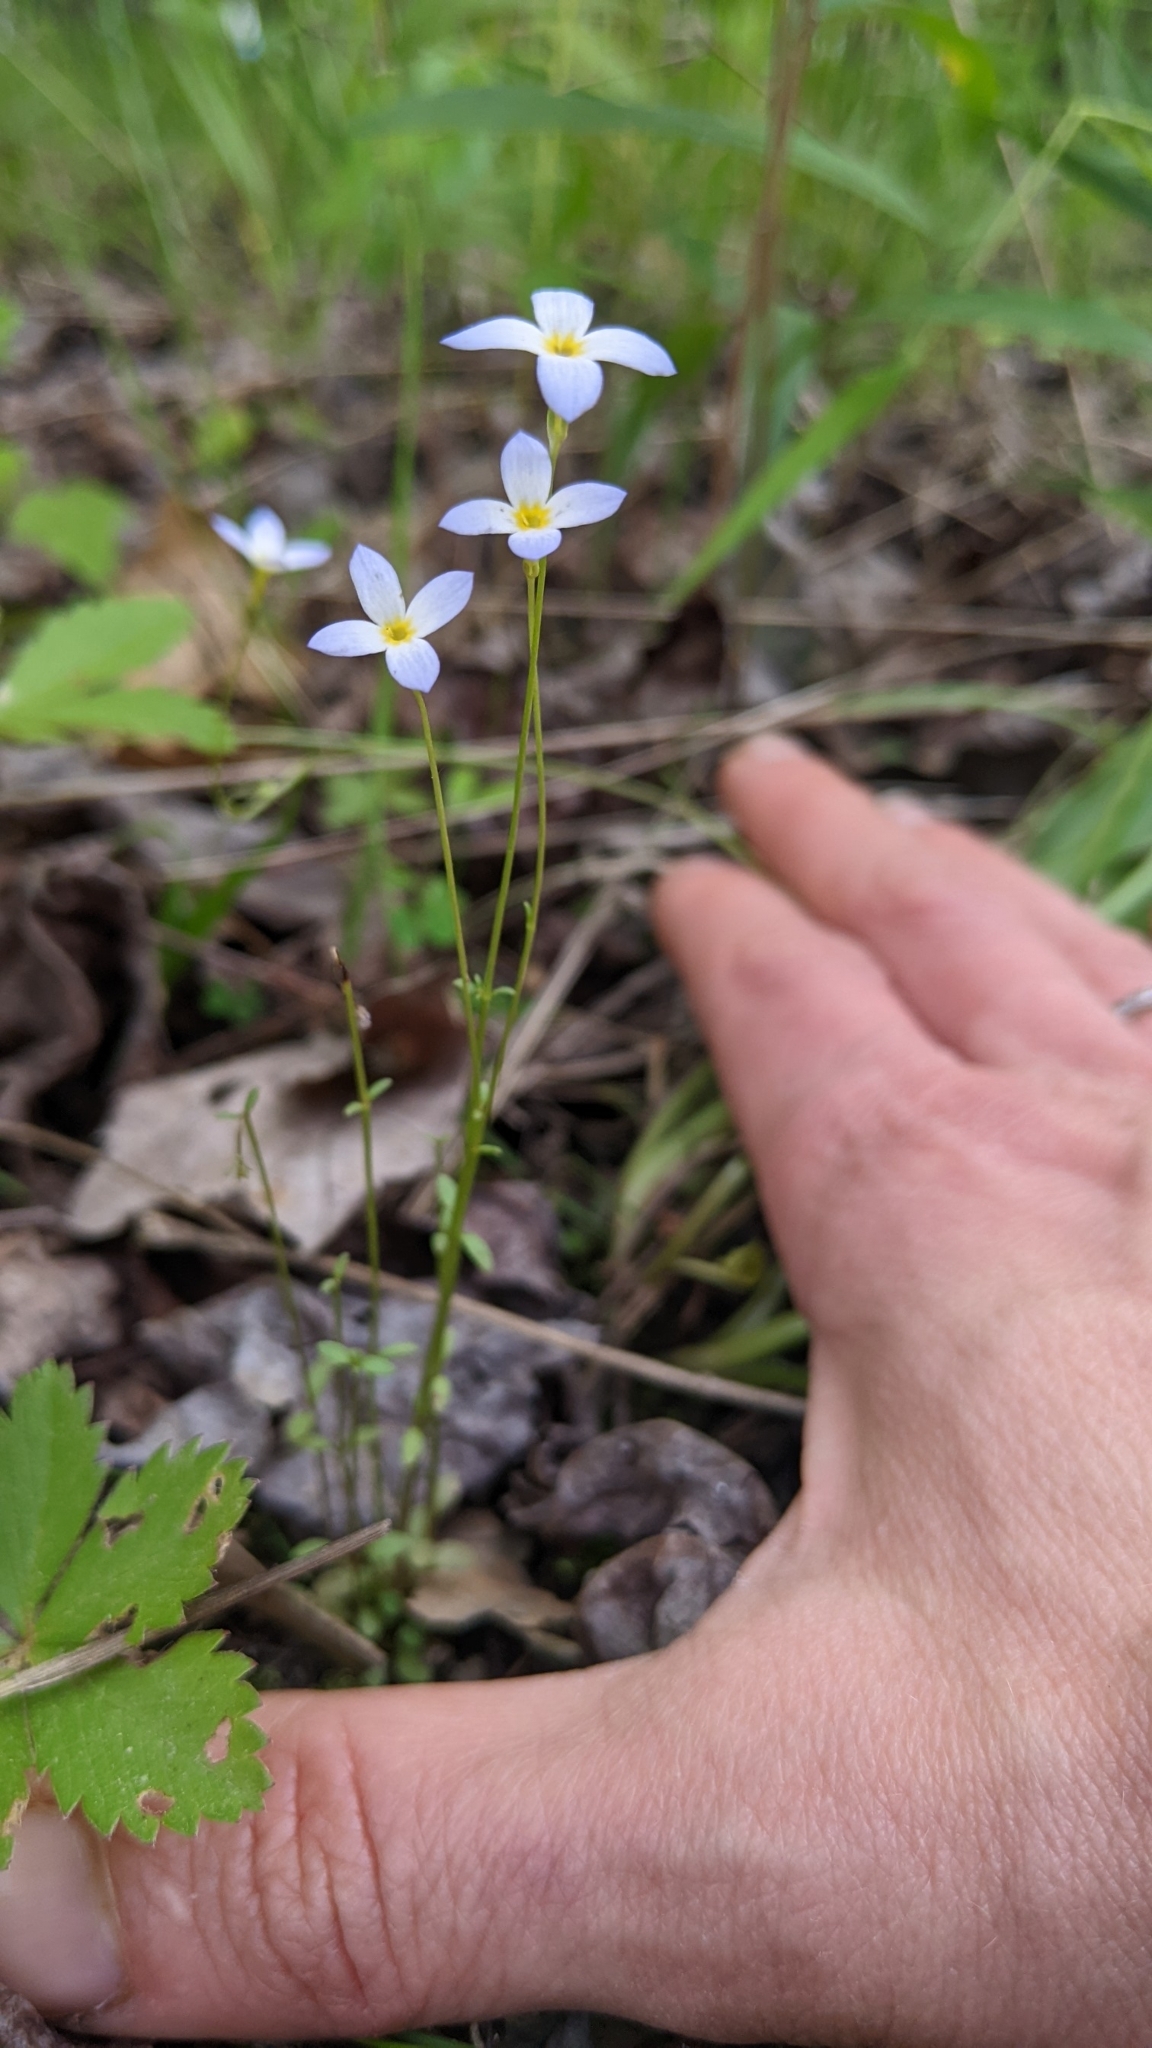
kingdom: Plantae
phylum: Tracheophyta
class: Magnoliopsida
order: Gentianales
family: Rubiaceae
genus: Houstonia
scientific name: Houstonia caerulea
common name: Bluets
